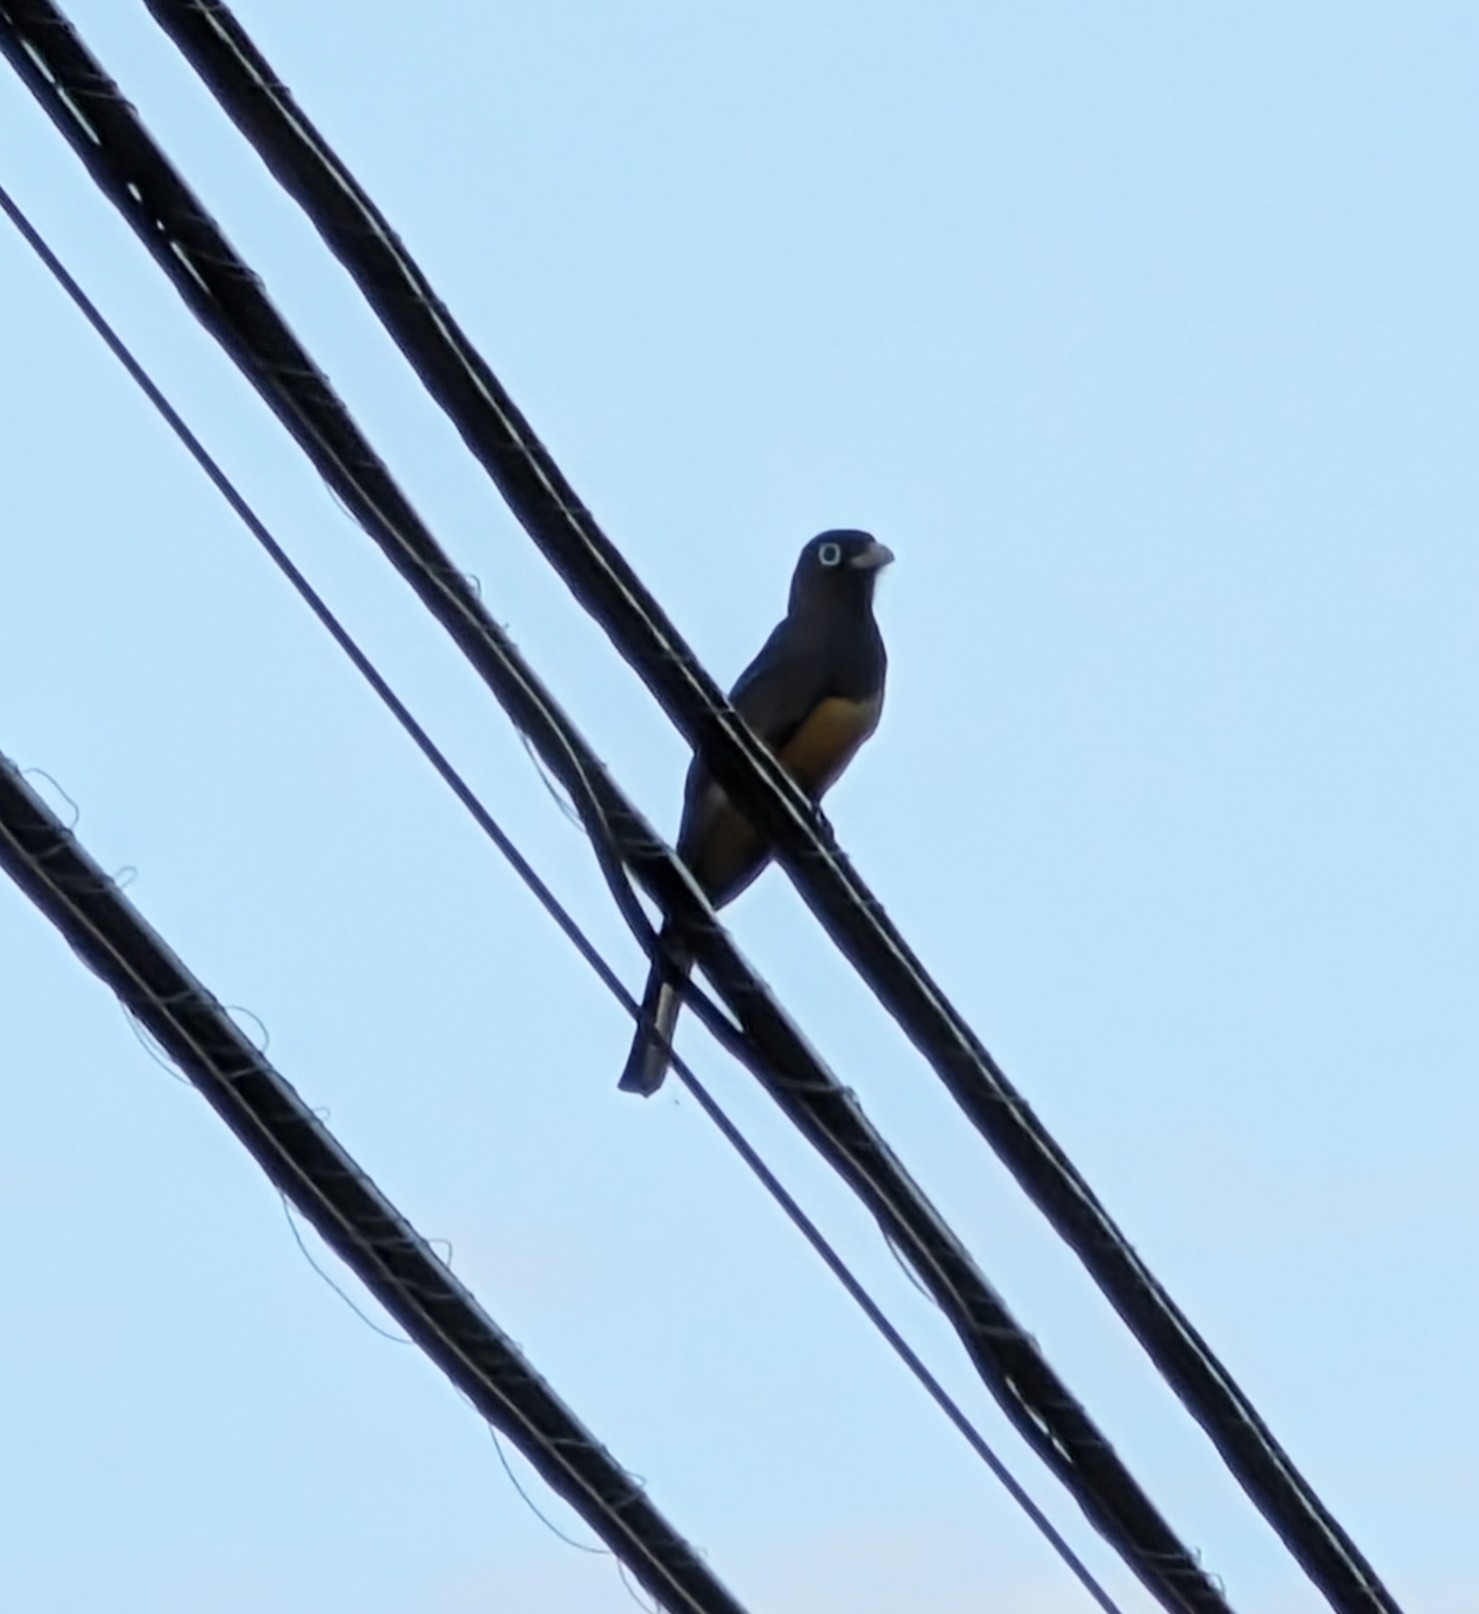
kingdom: Animalia
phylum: Chordata
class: Aves
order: Trogoniformes
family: Trogonidae
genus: Trogon
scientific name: Trogon melanocephalus
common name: Black-headed trogon
